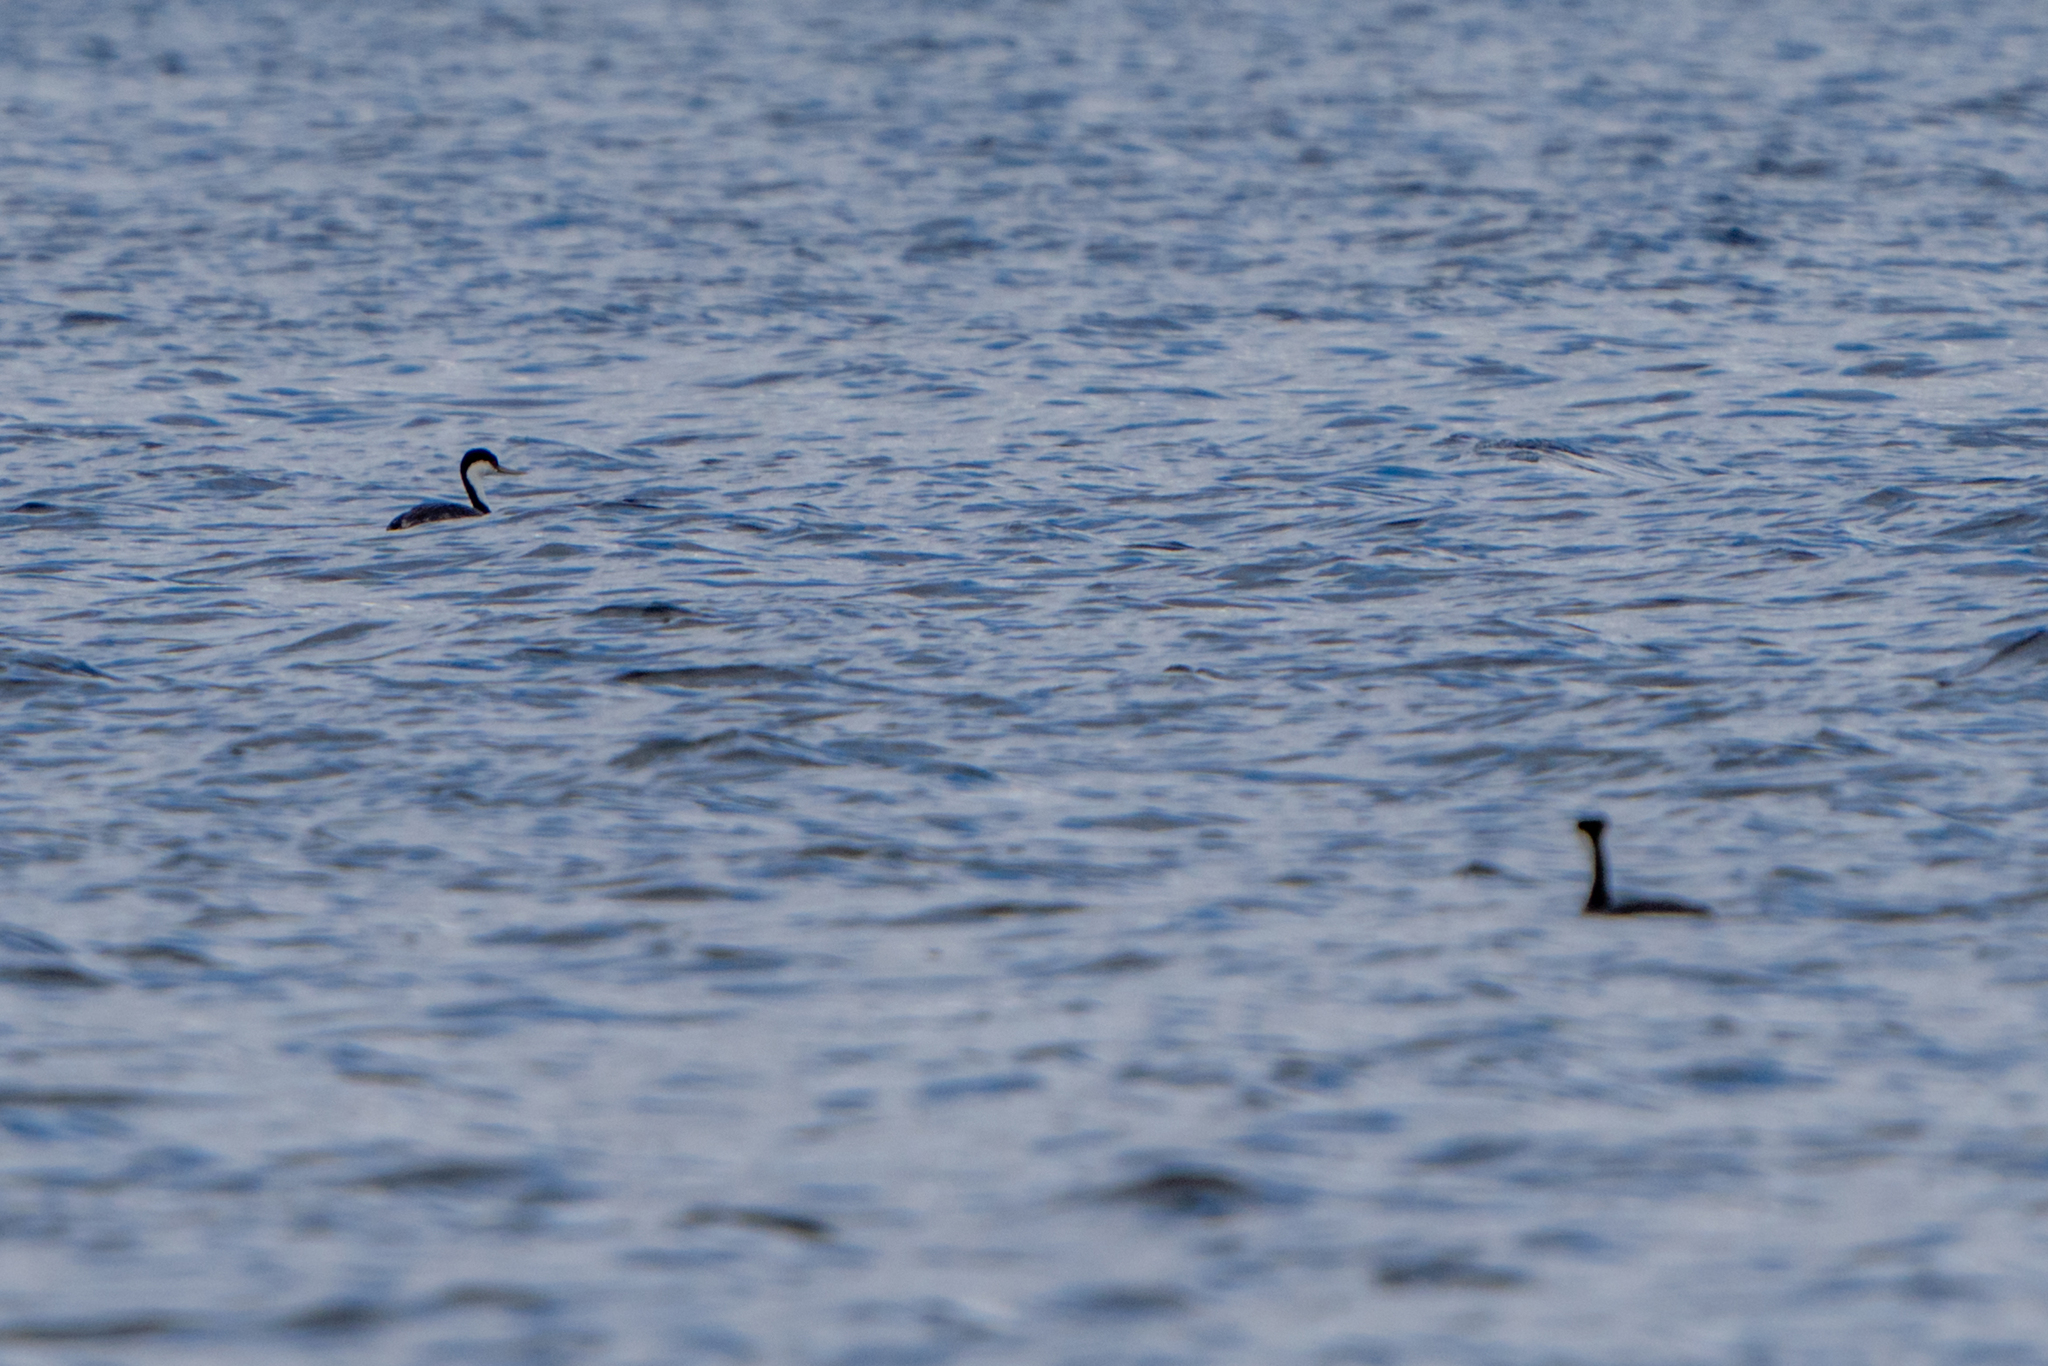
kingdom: Animalia
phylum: Chordata
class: Aves
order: Podicipediformes
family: Podicipedidae
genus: Aechmophorus
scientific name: Aechmophorus occidentalis
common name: Western grebe
